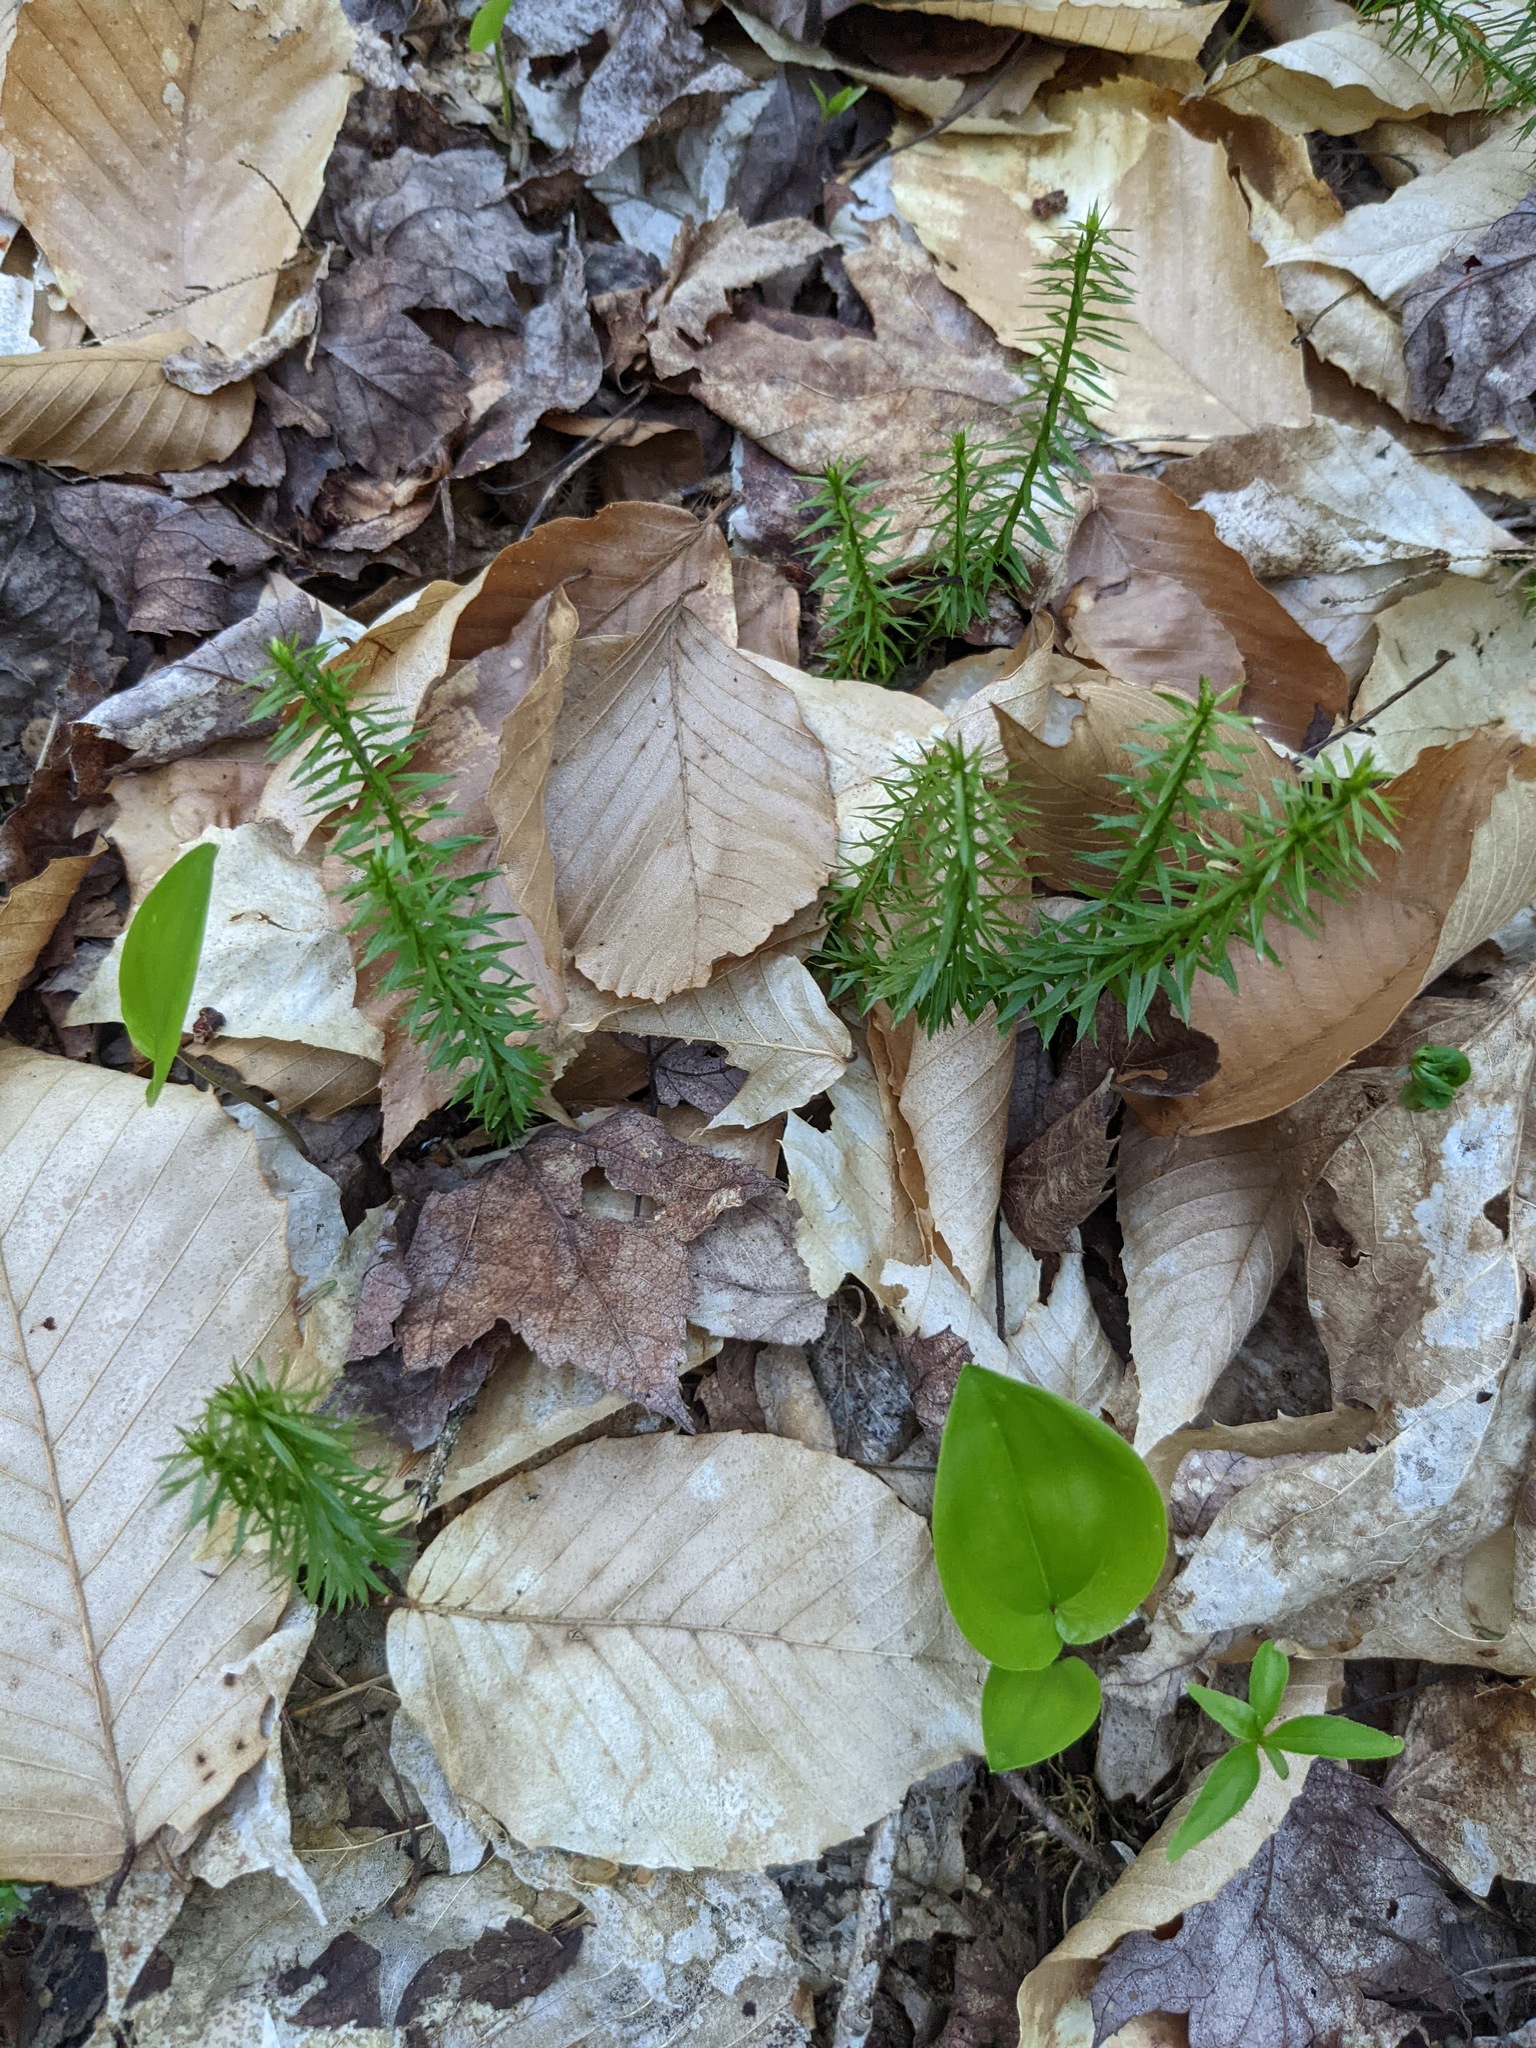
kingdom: Plantae
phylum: Tracheophyta
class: Liliopsida
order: Asparagales
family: Asparagaceae
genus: Maianthemum
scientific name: Maianthemum canadense
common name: False lily-of-the-valley
